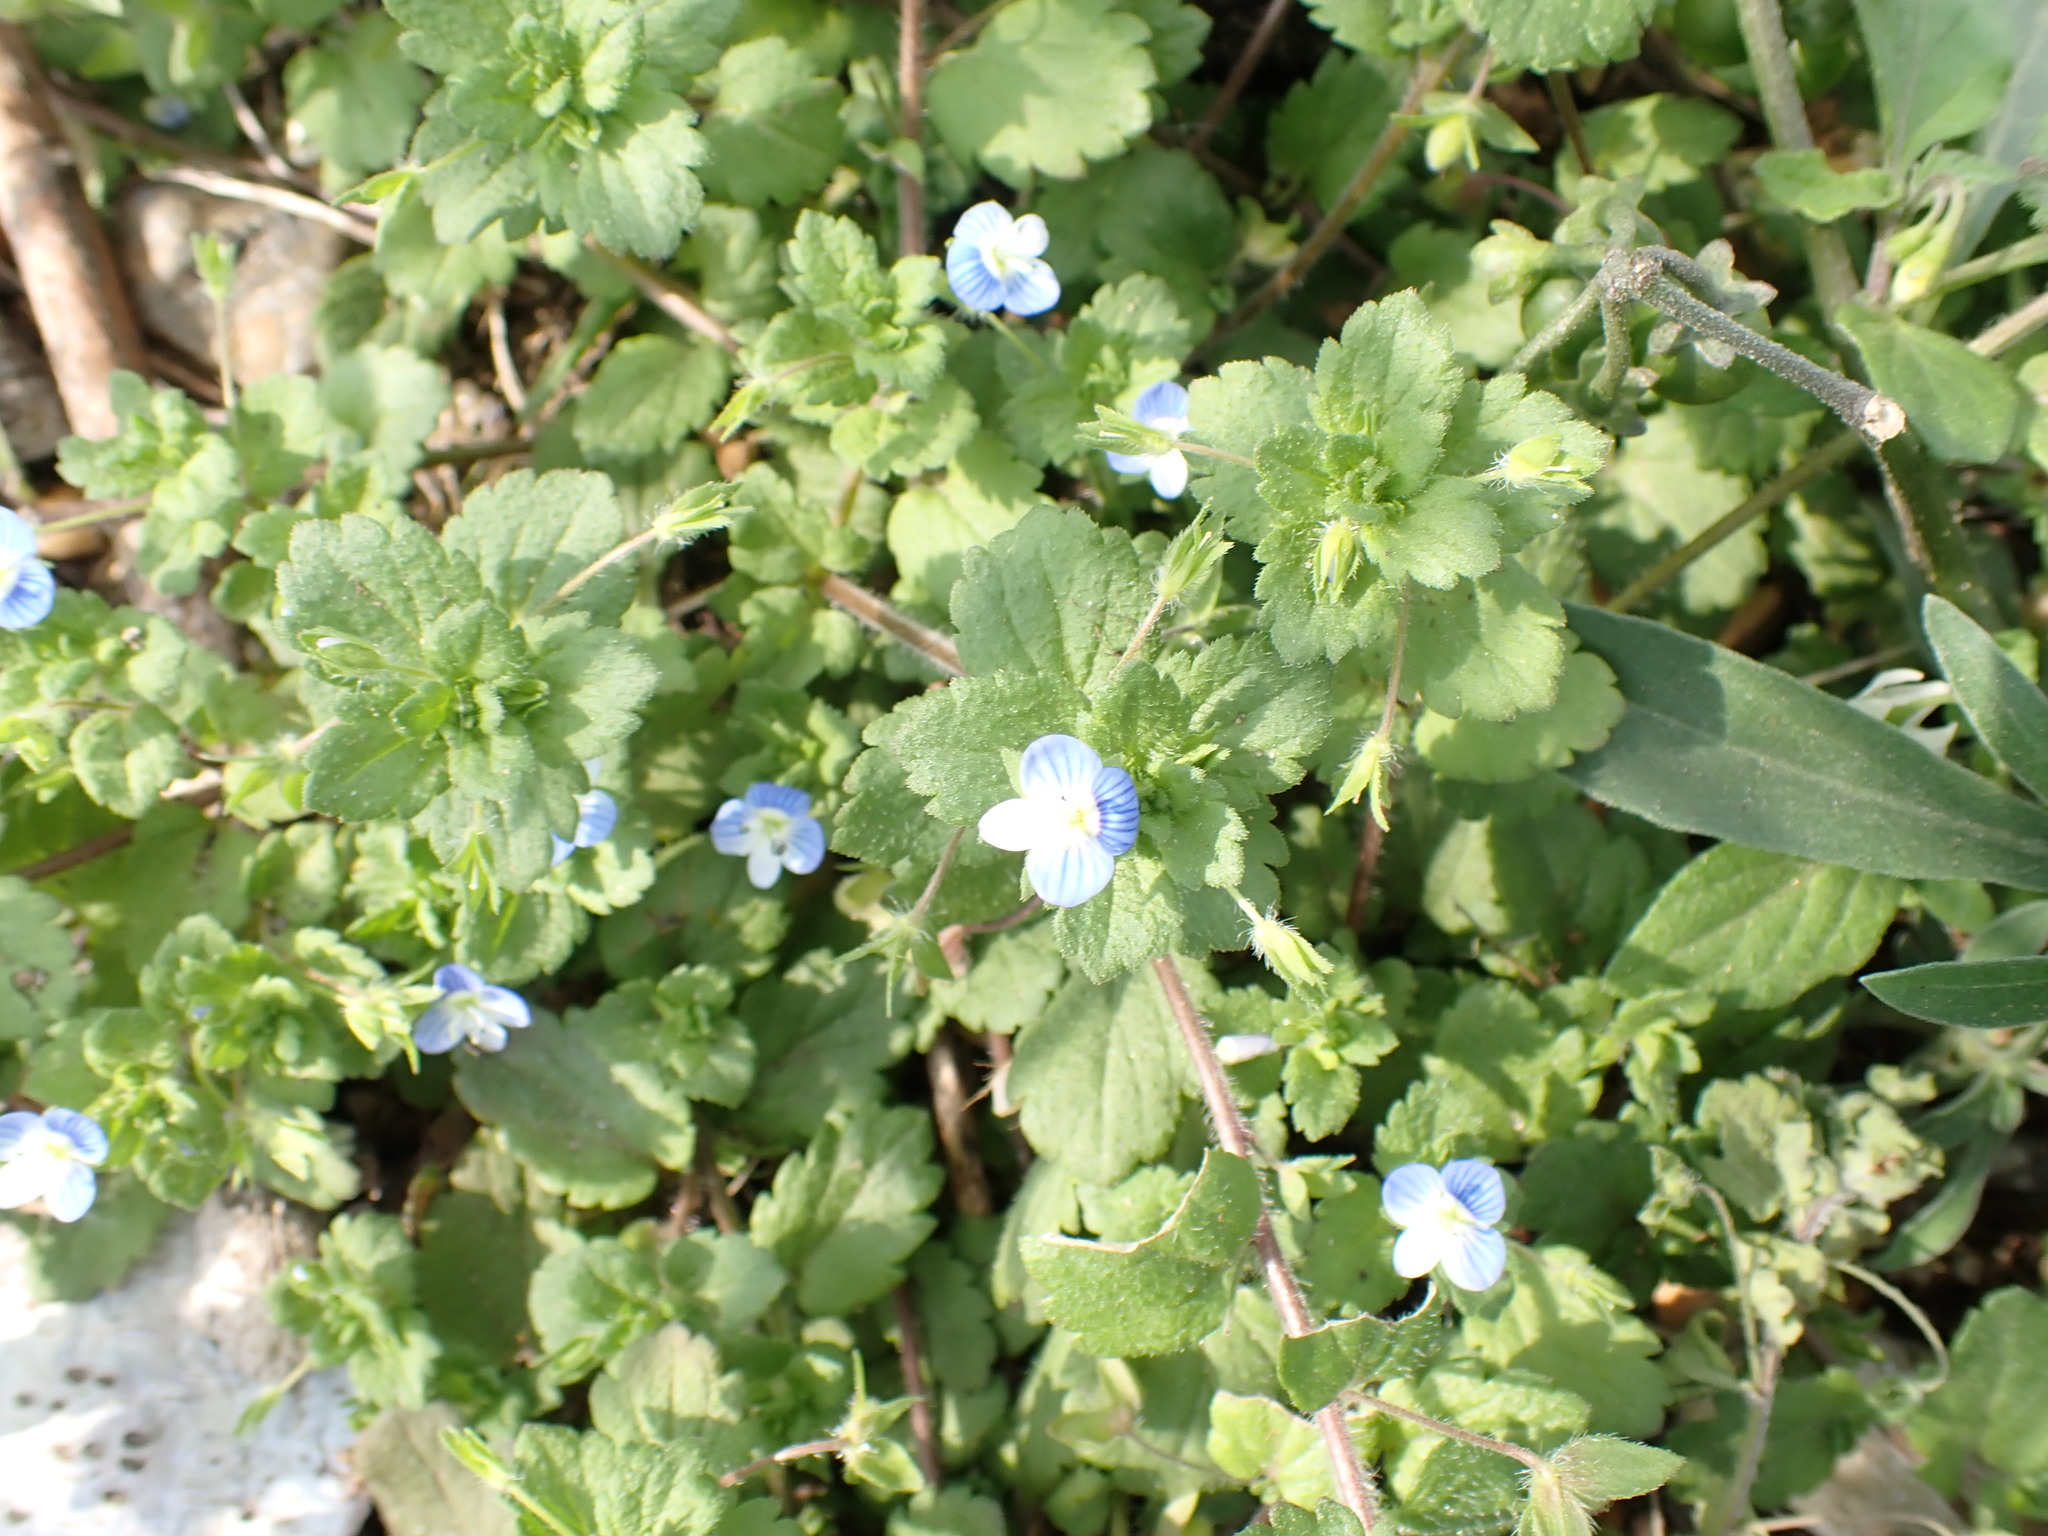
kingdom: Plantae
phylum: Tracheophyta
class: Magnoliopsida
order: Lamiales
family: Plantaginaceae
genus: Veronica
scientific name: Veronica persica
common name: Common field-speedwell
